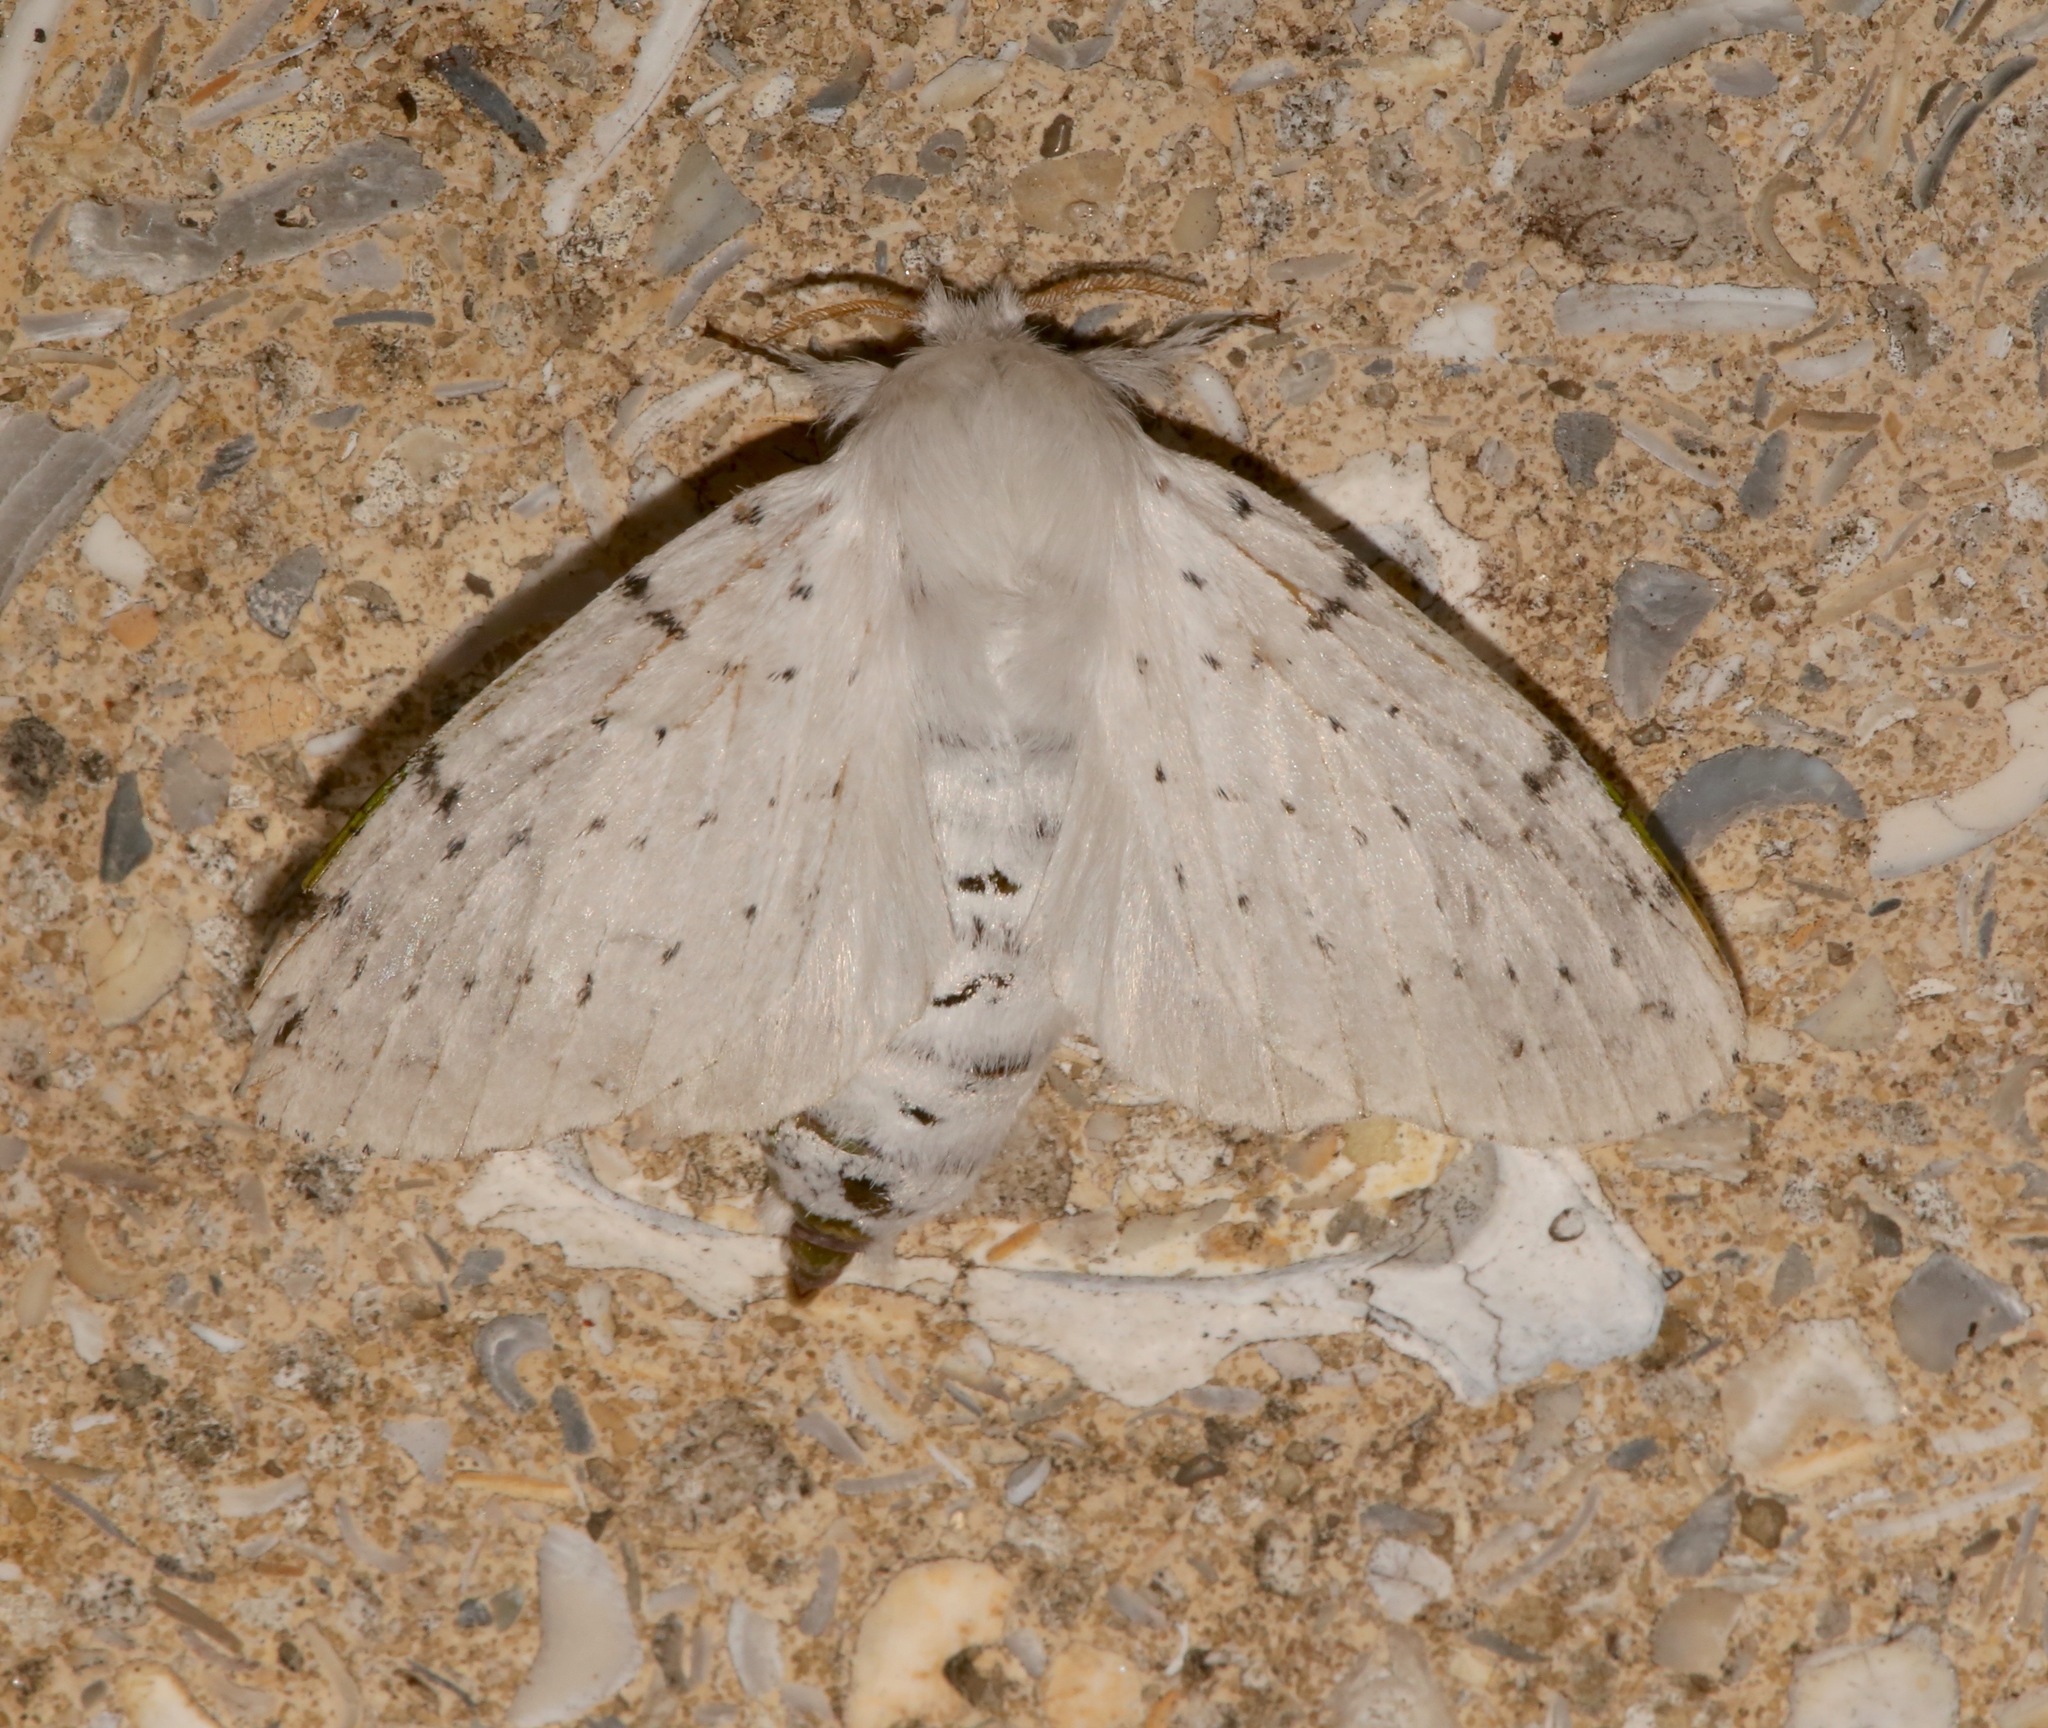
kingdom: Animalia
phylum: Arthropoda
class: Insecta
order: Lepidoptera
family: Lasiocampidae
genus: Artace
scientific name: Artace cribrarius
